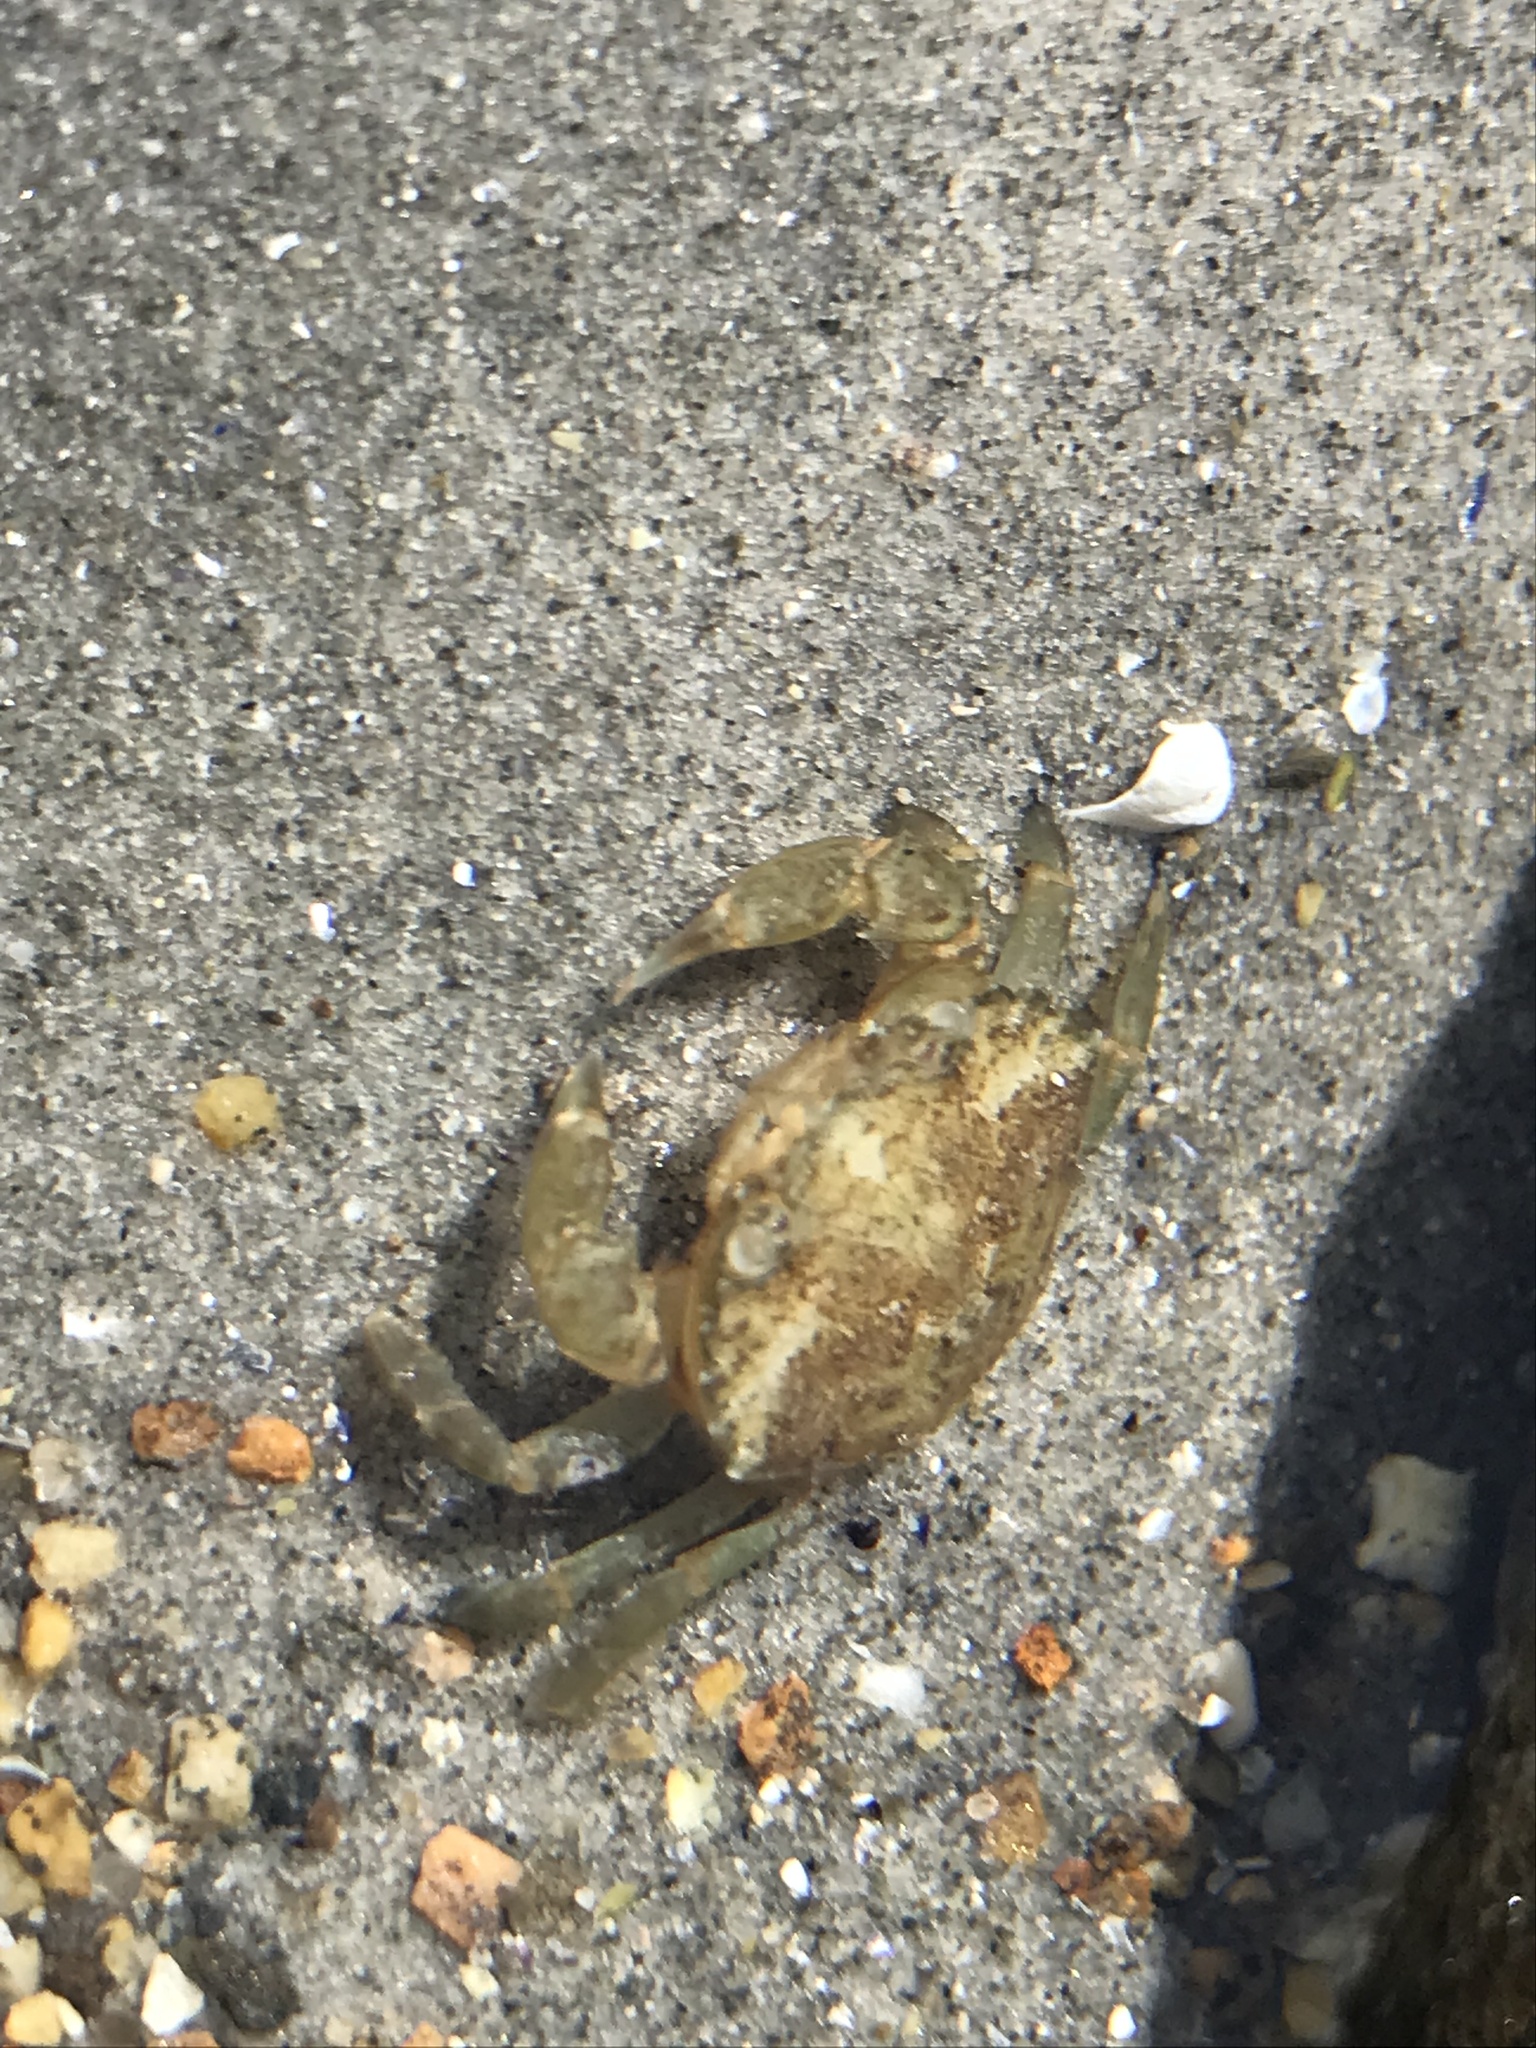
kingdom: Animalia
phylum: Arthropoda
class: Malacostraca
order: Decapoda
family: Carcinidae
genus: Carcinus
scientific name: Carcinus maenas
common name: European green crab
